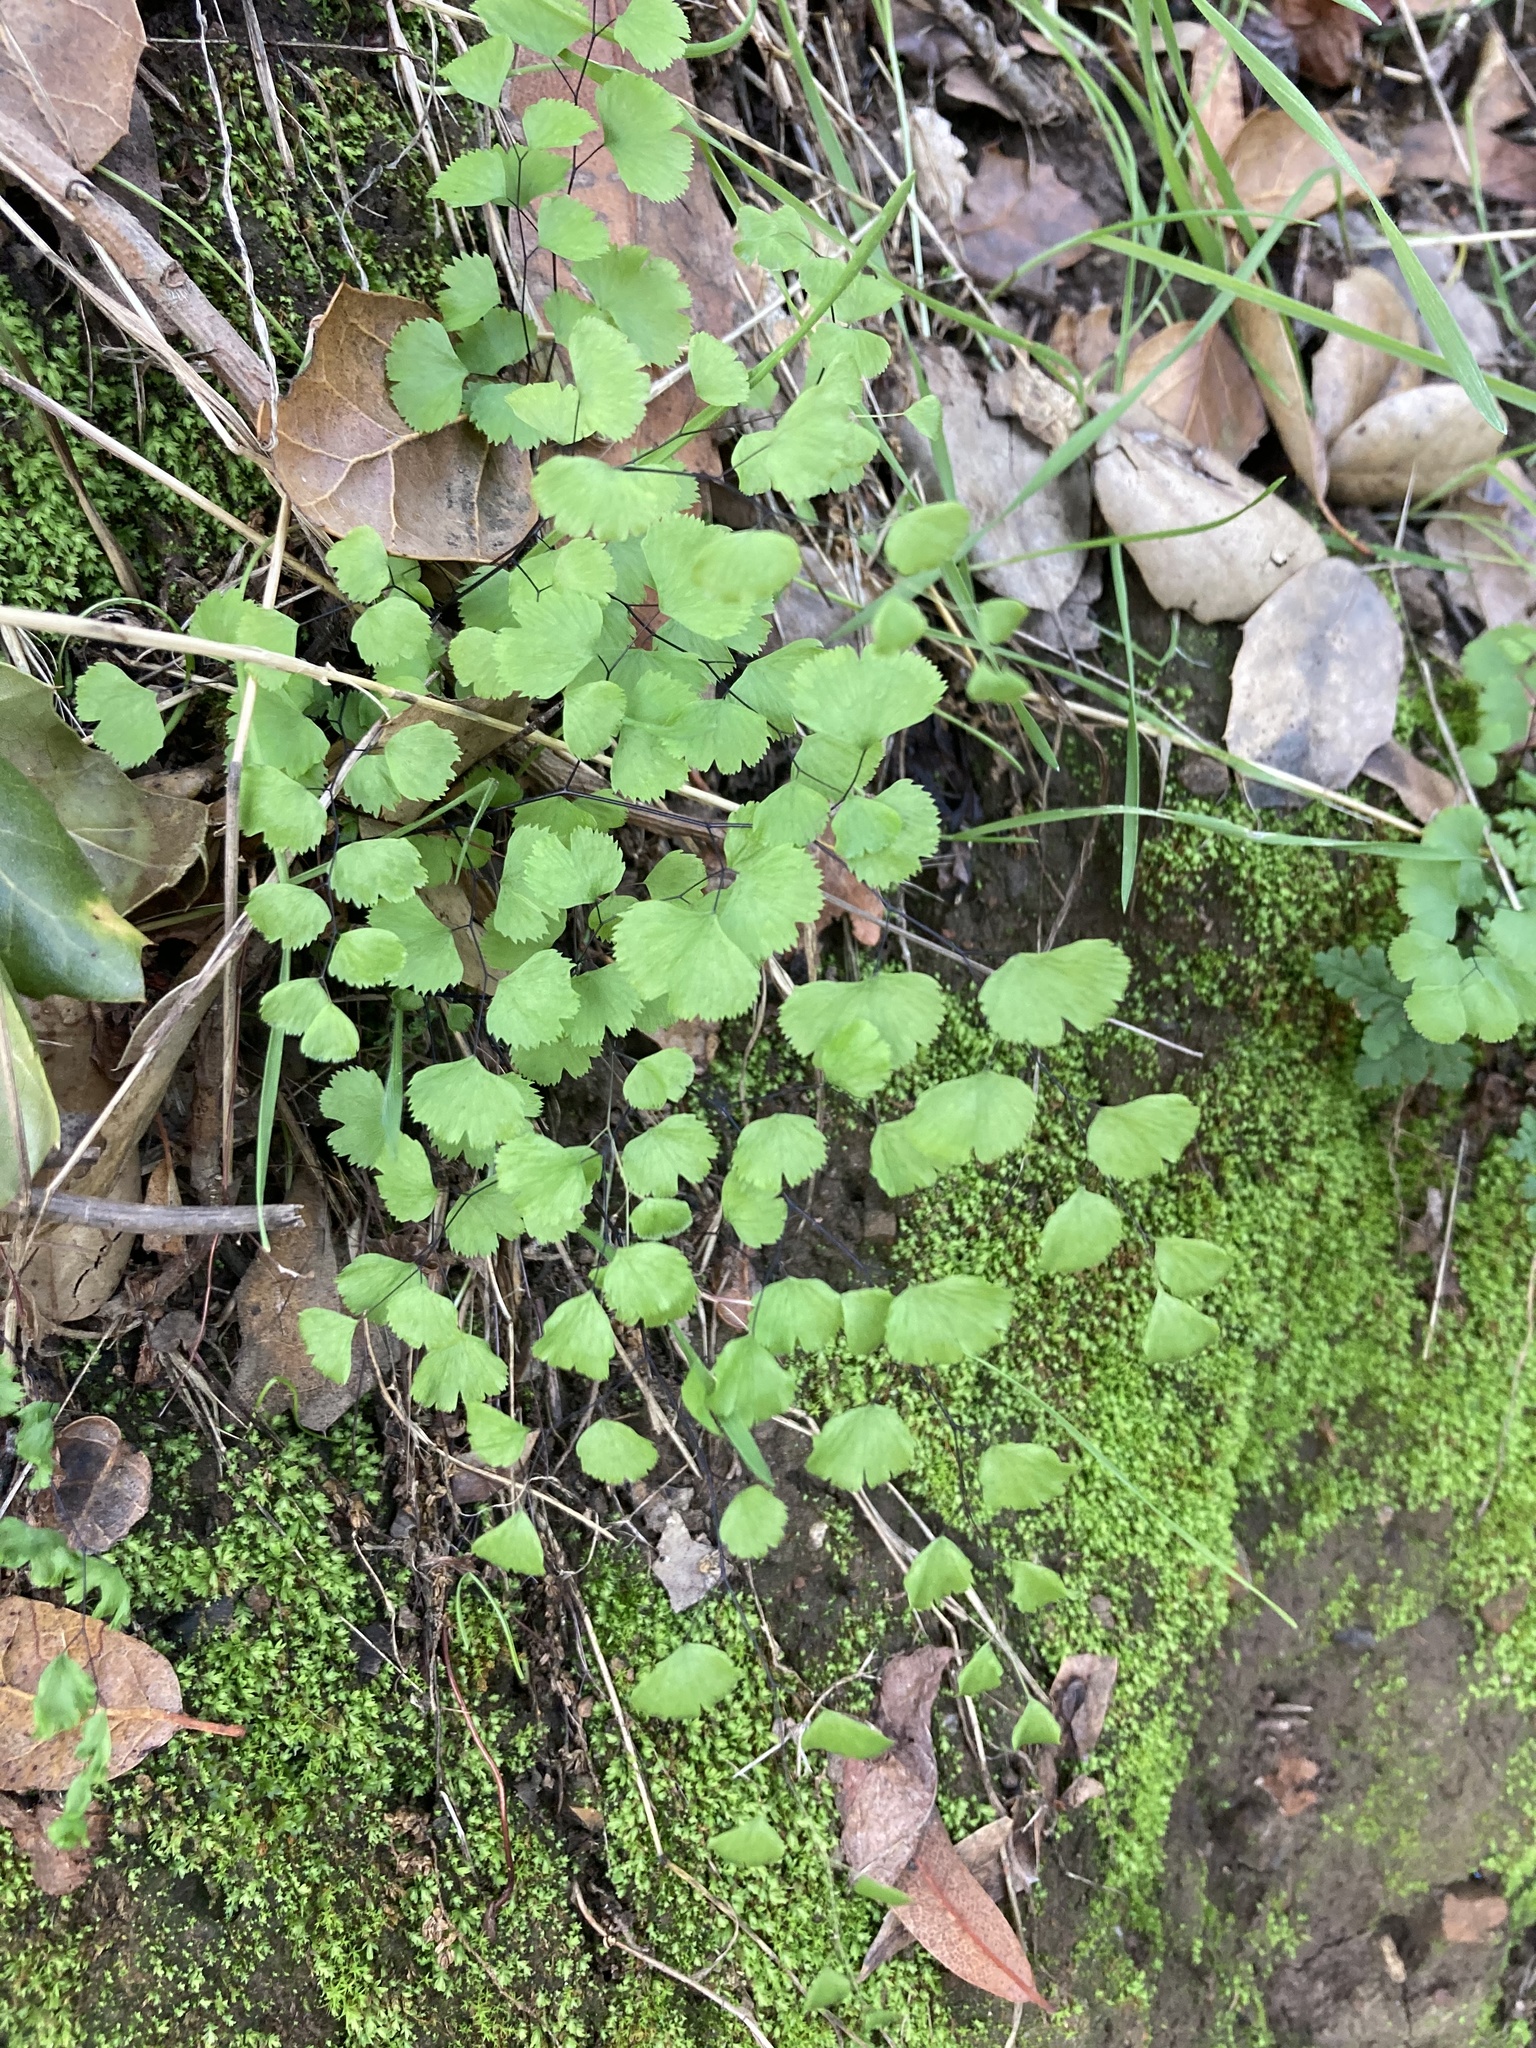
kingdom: Plantae
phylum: Tracheophyta
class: Polypodiopsida
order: Polypodiales
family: Pteridaceae
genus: Adiantum
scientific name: Adiantum jordanii
